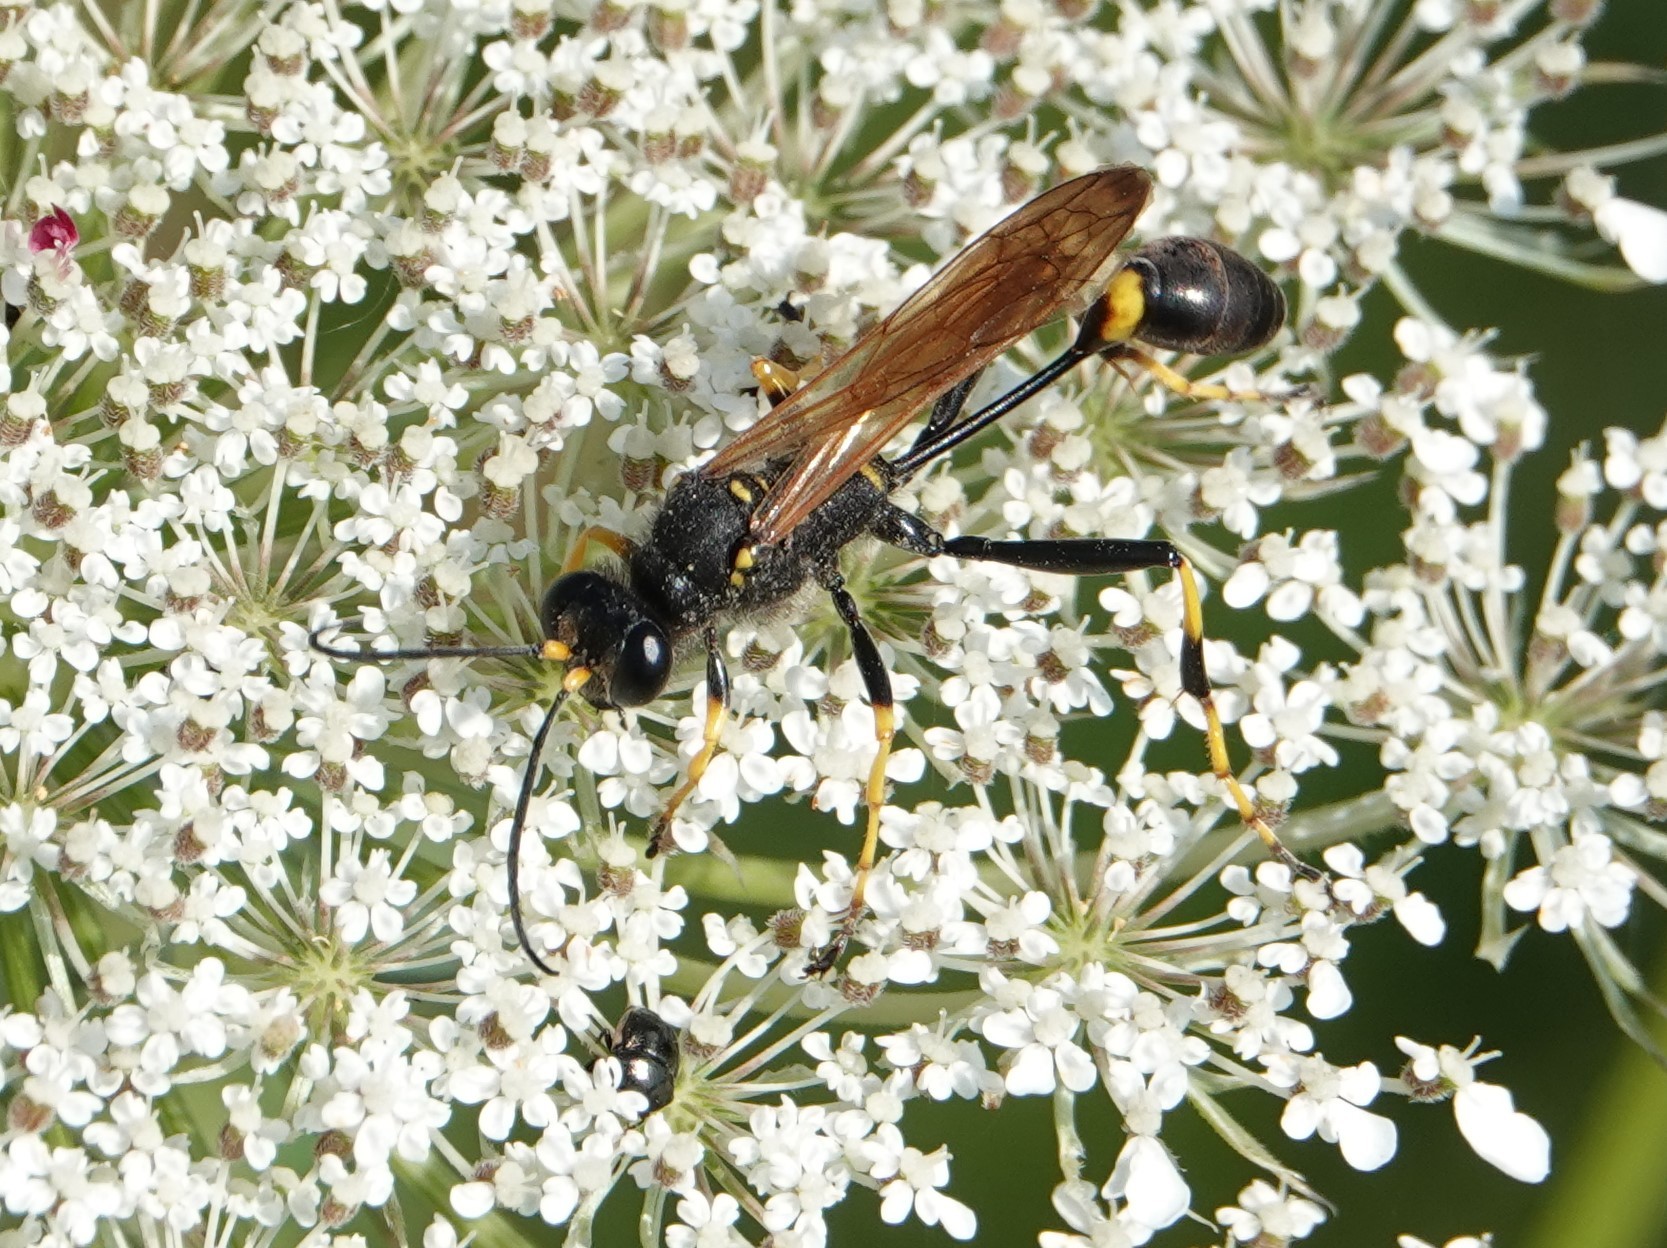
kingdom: Animalia
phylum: Arthropoda
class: Insecta
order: Hymenoptera
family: Sphecidae
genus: Sceliphron
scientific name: Sceliphron caementarium
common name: Mud dauber
